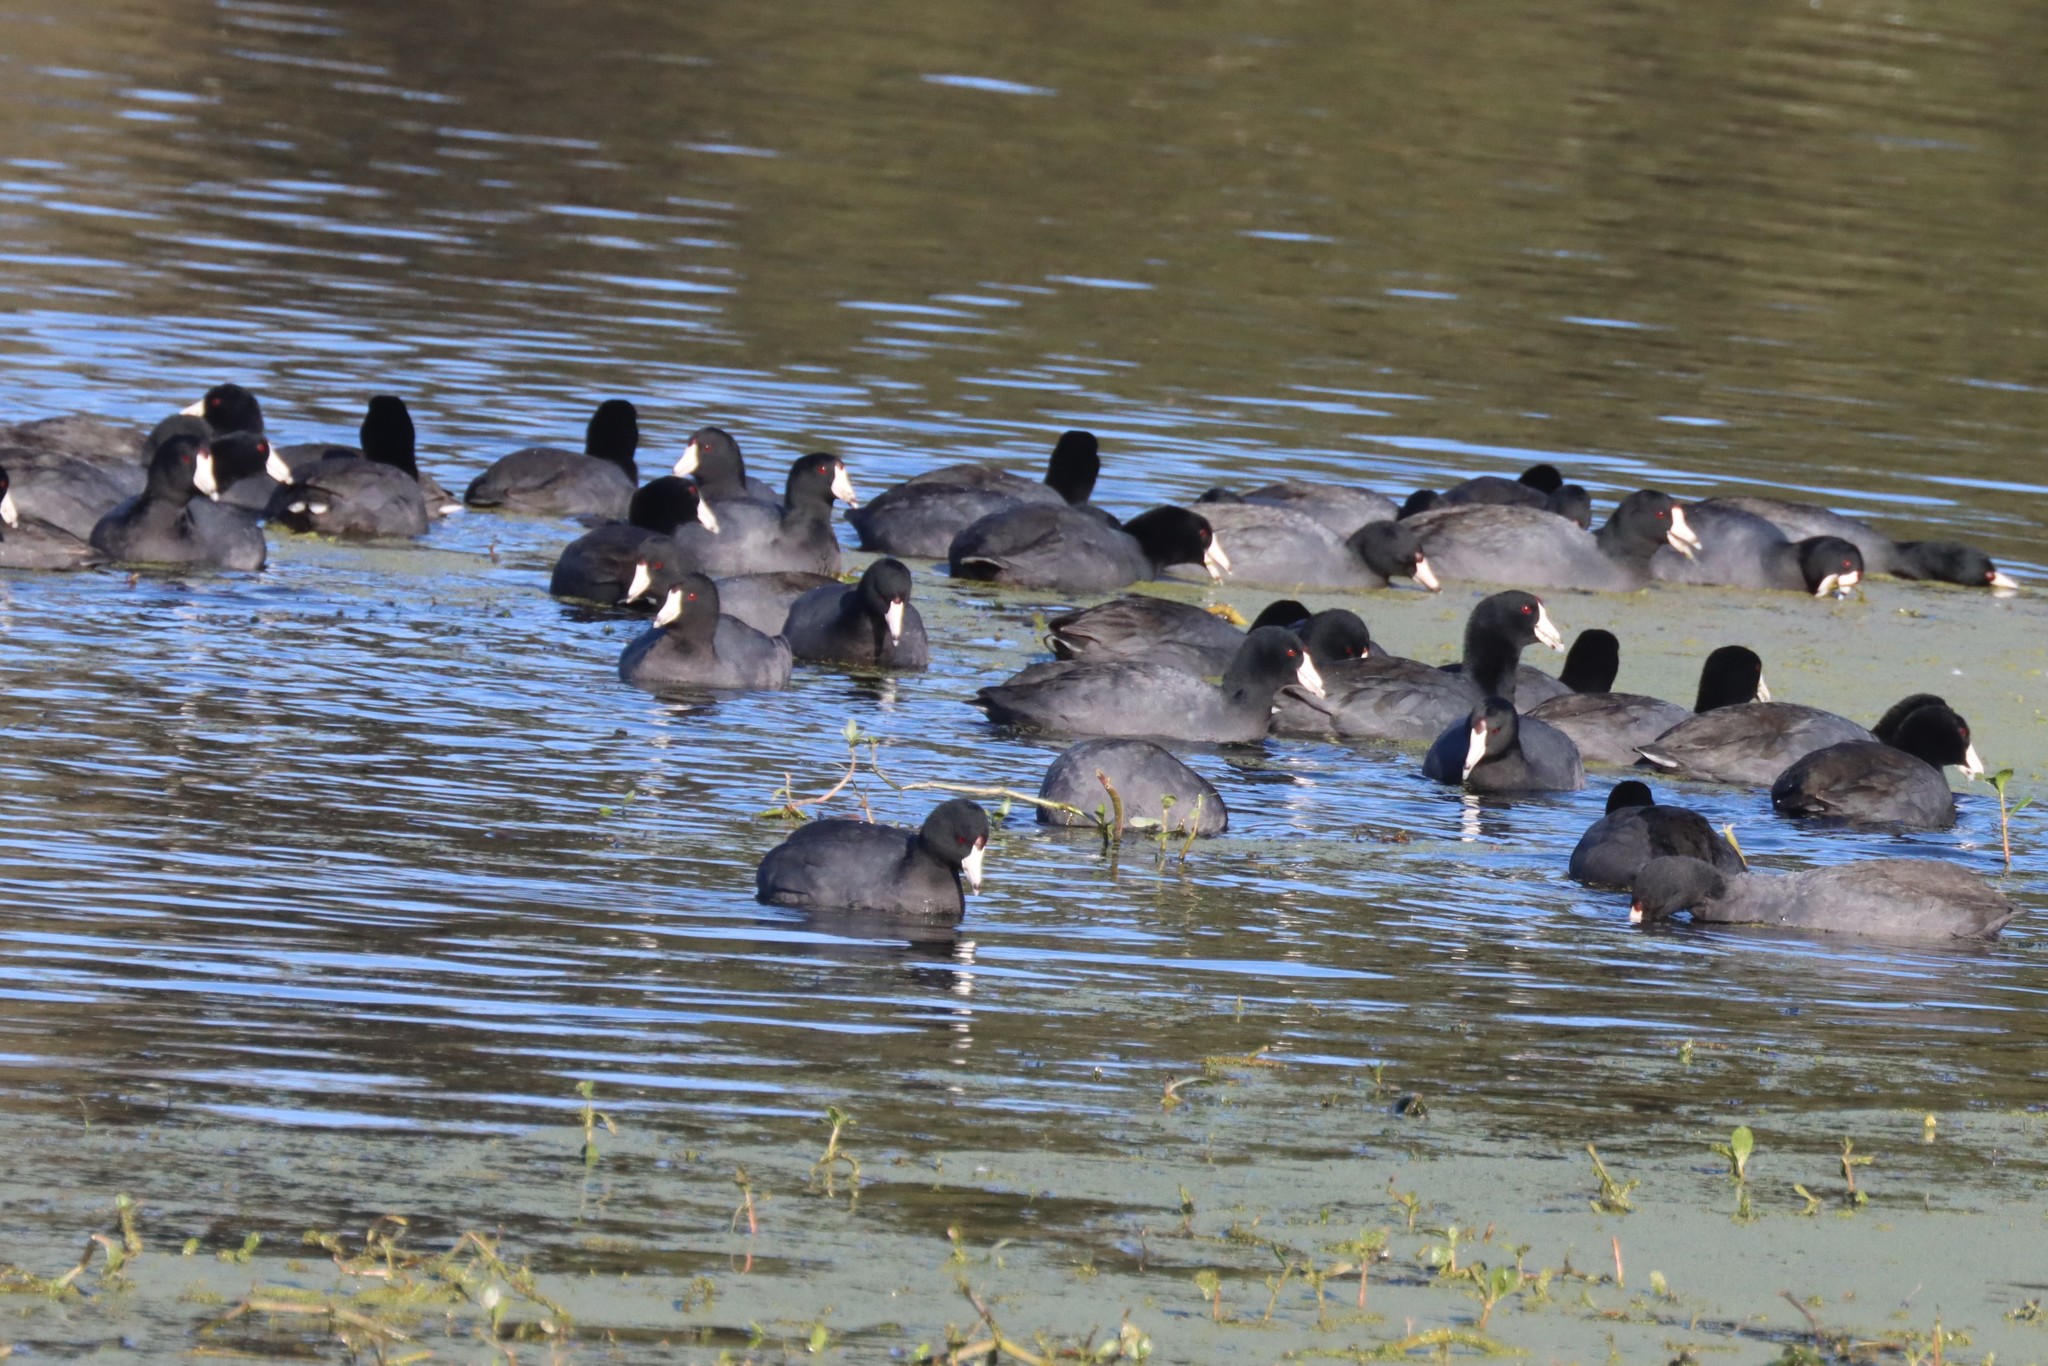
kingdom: Animalia
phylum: Chordata
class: Aves
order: Gruiformes
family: Rallidae
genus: Fulica
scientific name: Fulica americana
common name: American coot
